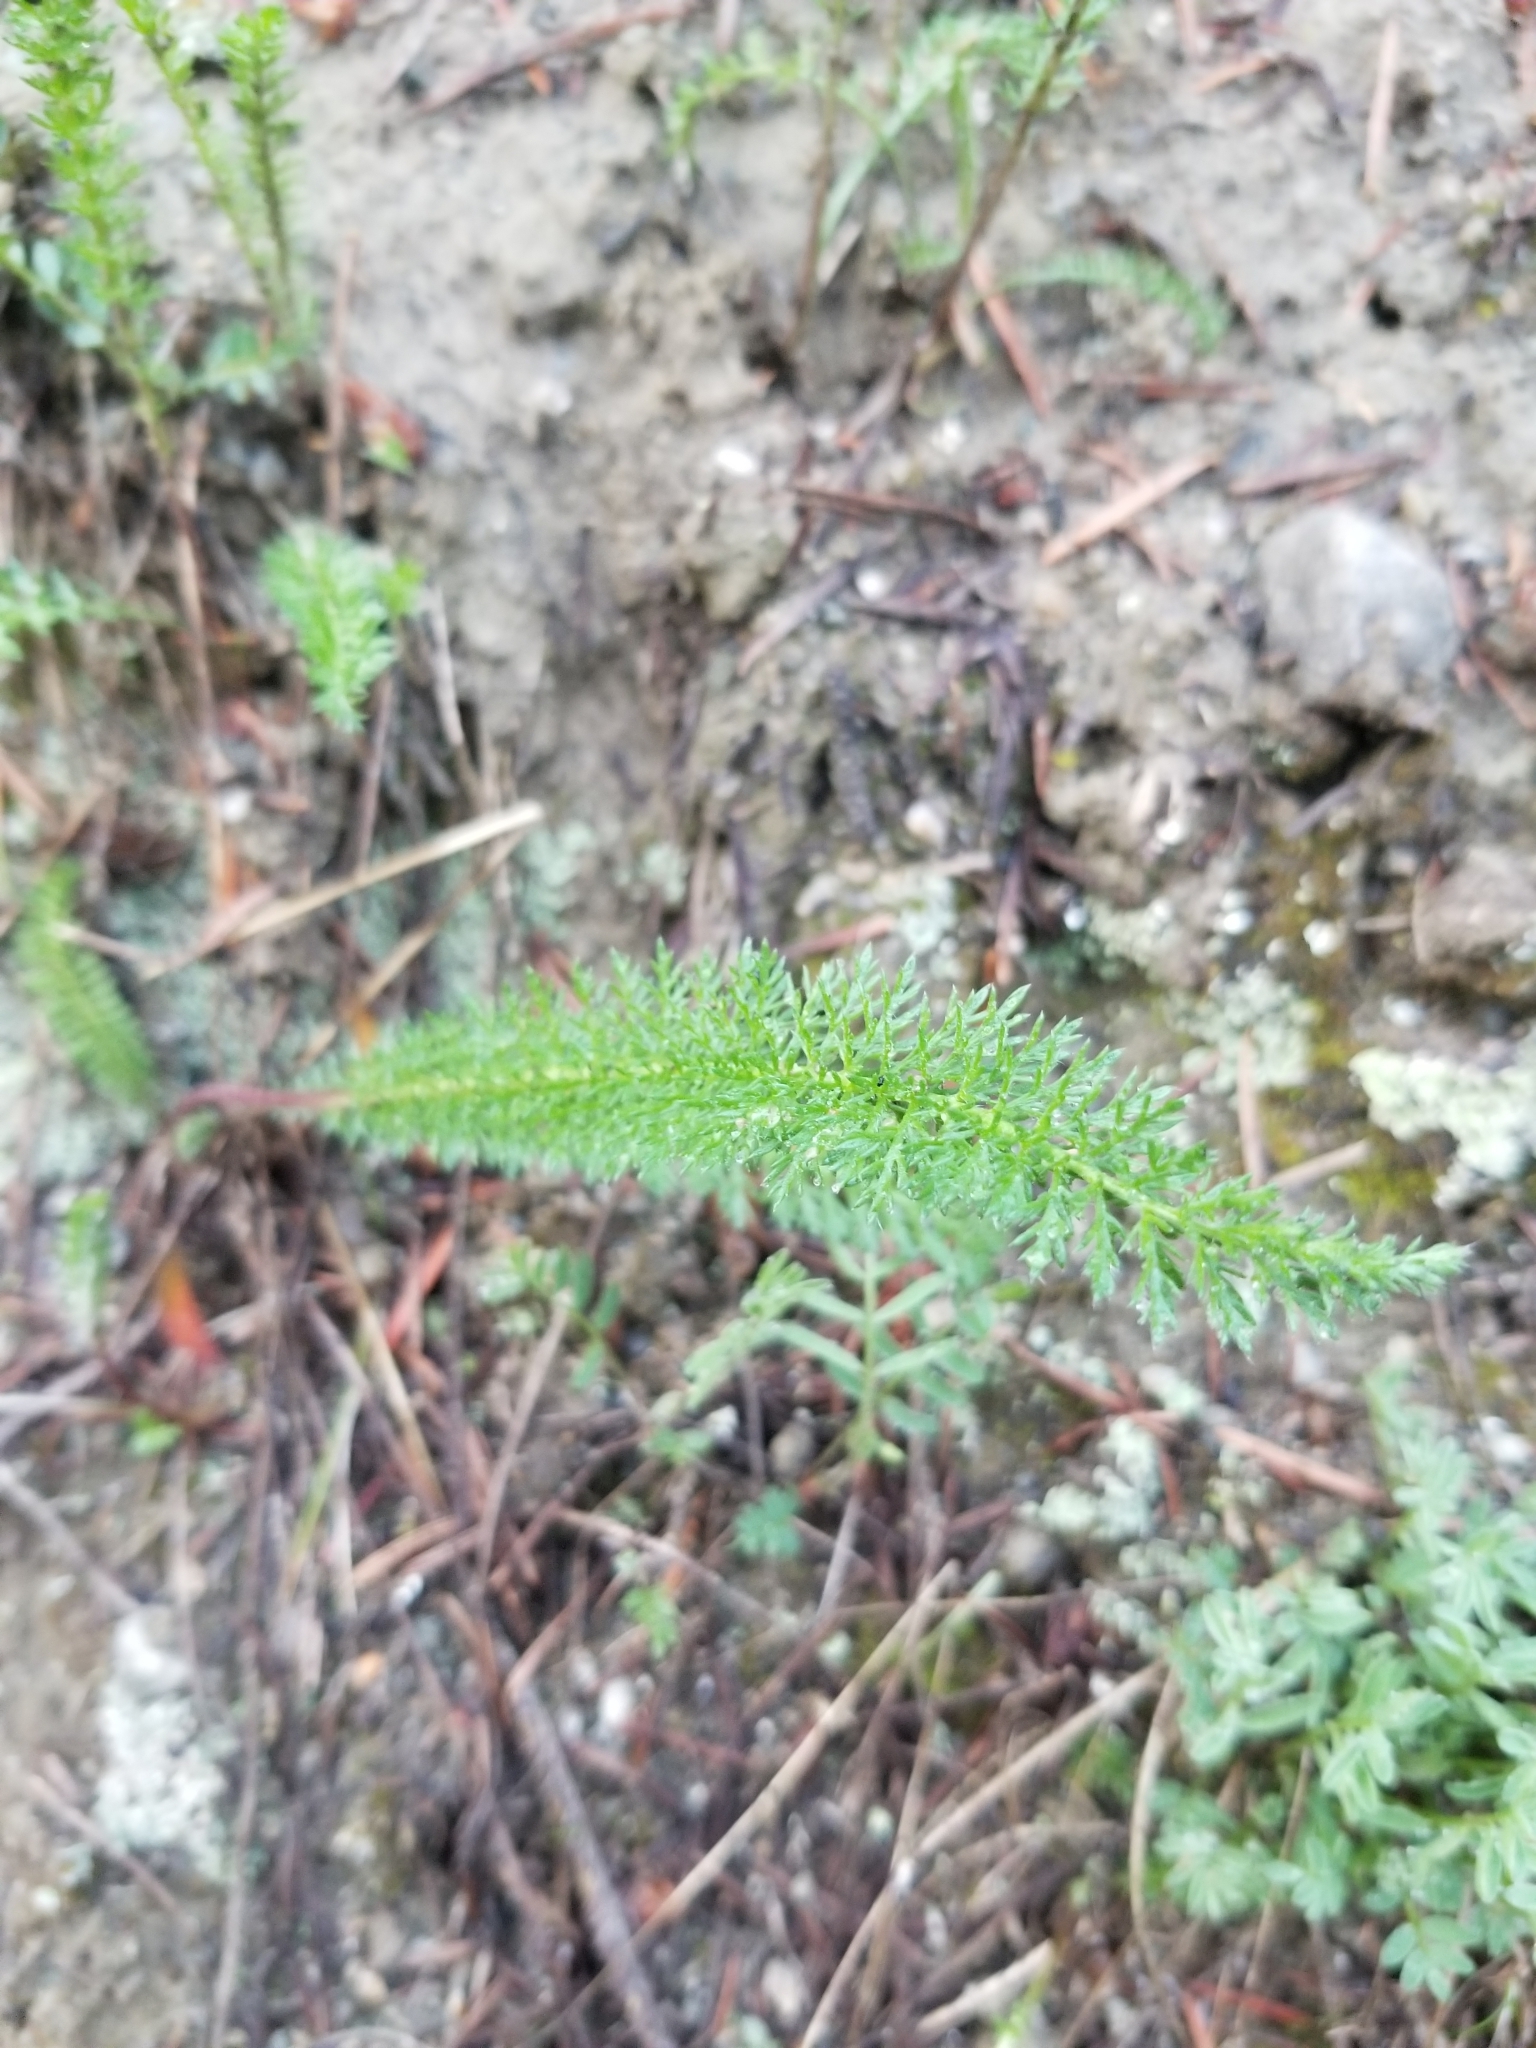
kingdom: Plantae
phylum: Tracheophyta
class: Magnoliopsida
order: Asterales
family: Asteraceae
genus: Achillea
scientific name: Achillea millefolium
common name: Yarrow
